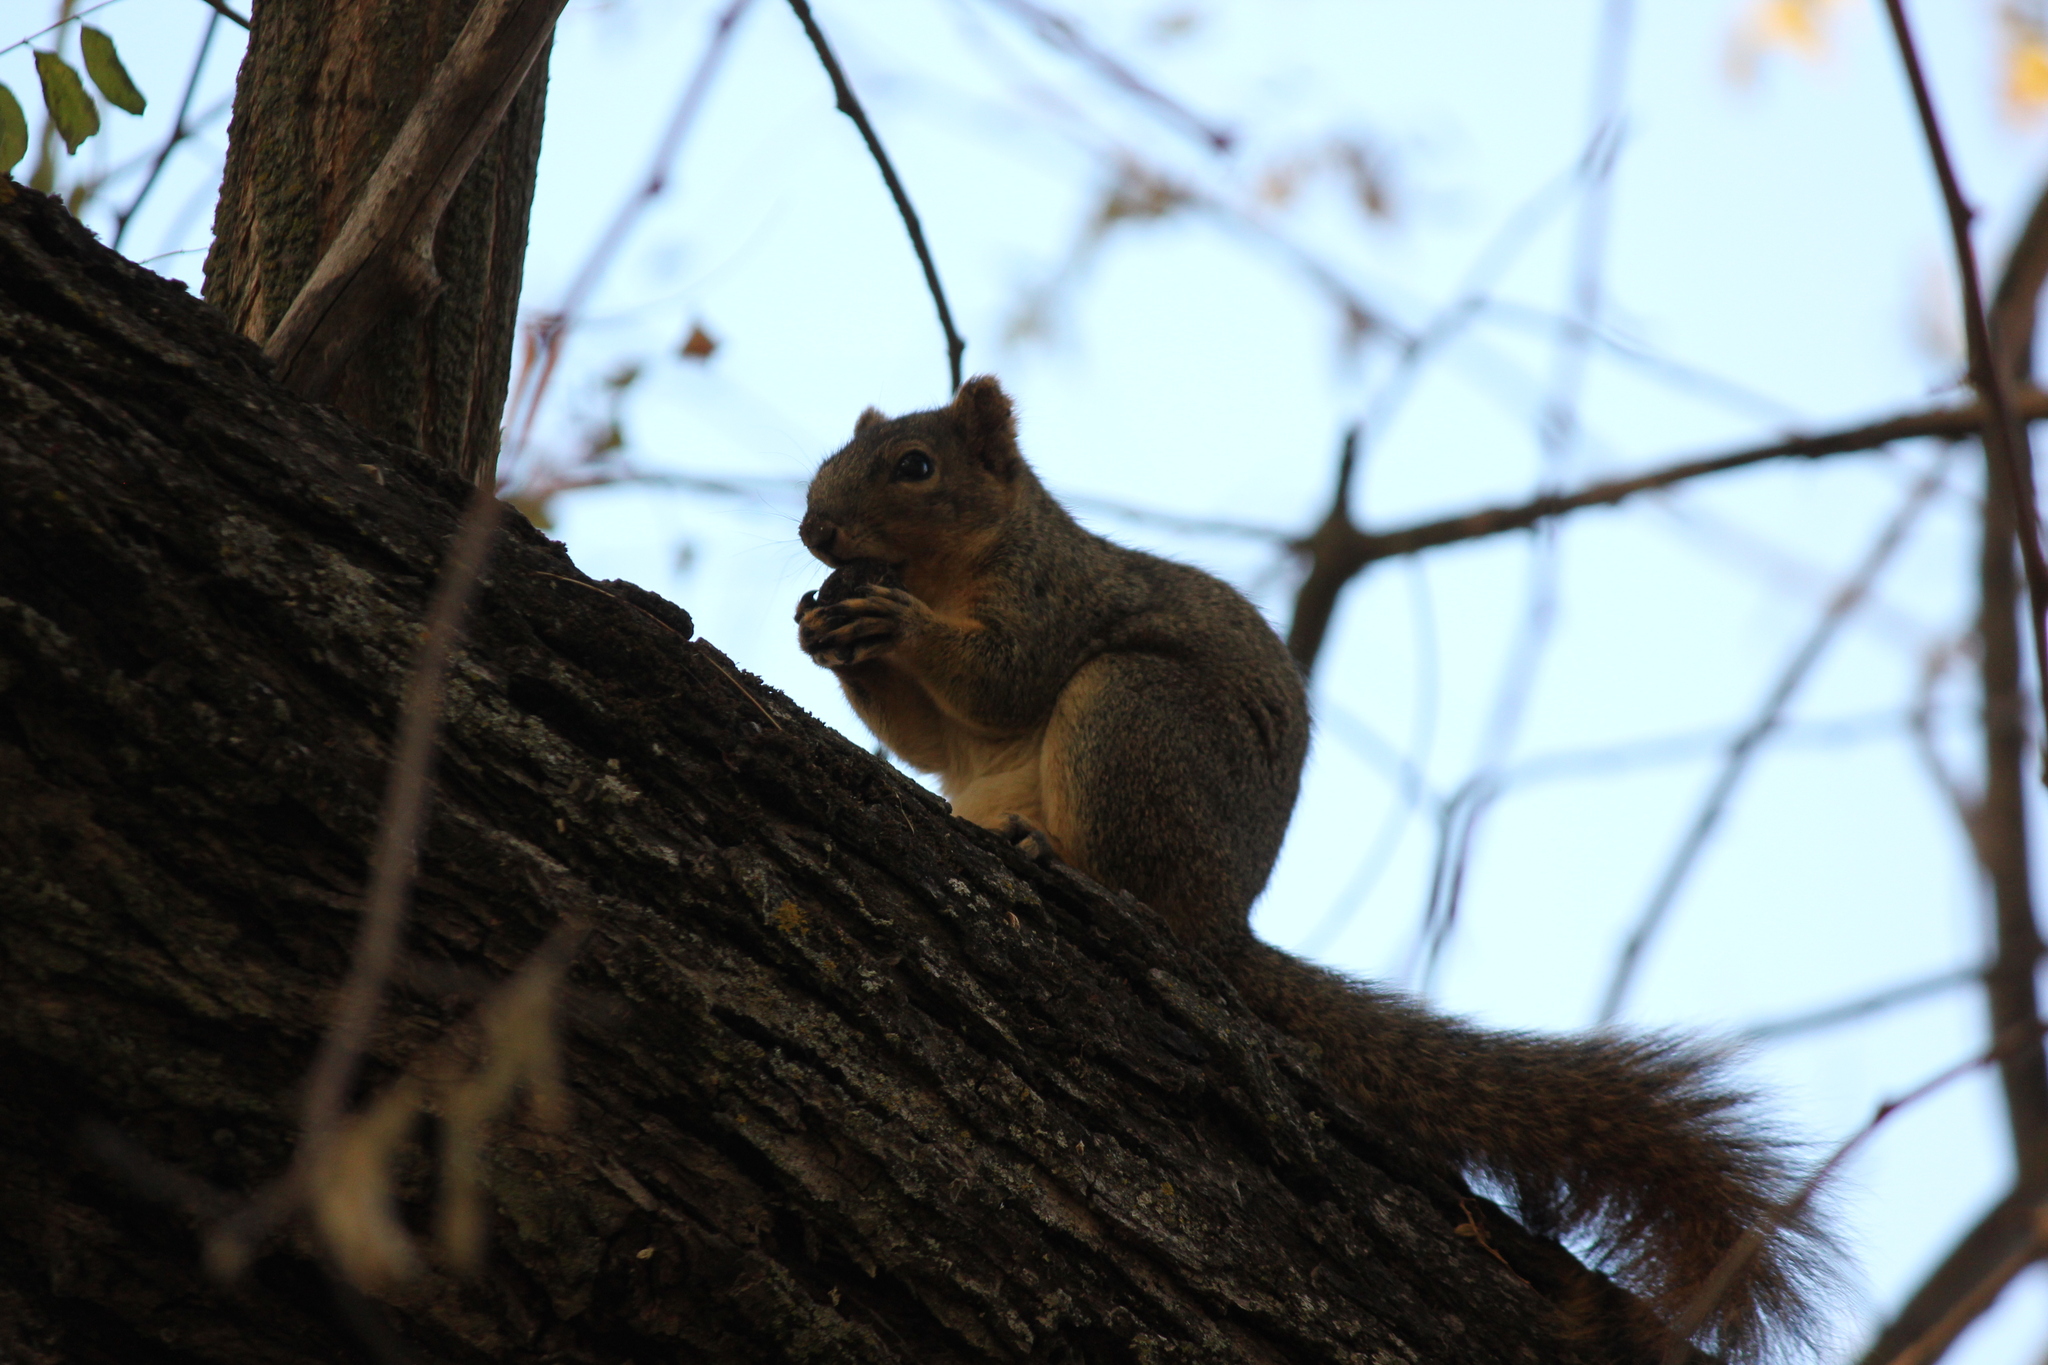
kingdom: Animalia
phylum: Chordata
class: Mammalia
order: Rodentia
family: Sciuridae
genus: Sciurus
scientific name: Sciurus niger
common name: Fox squirrel
